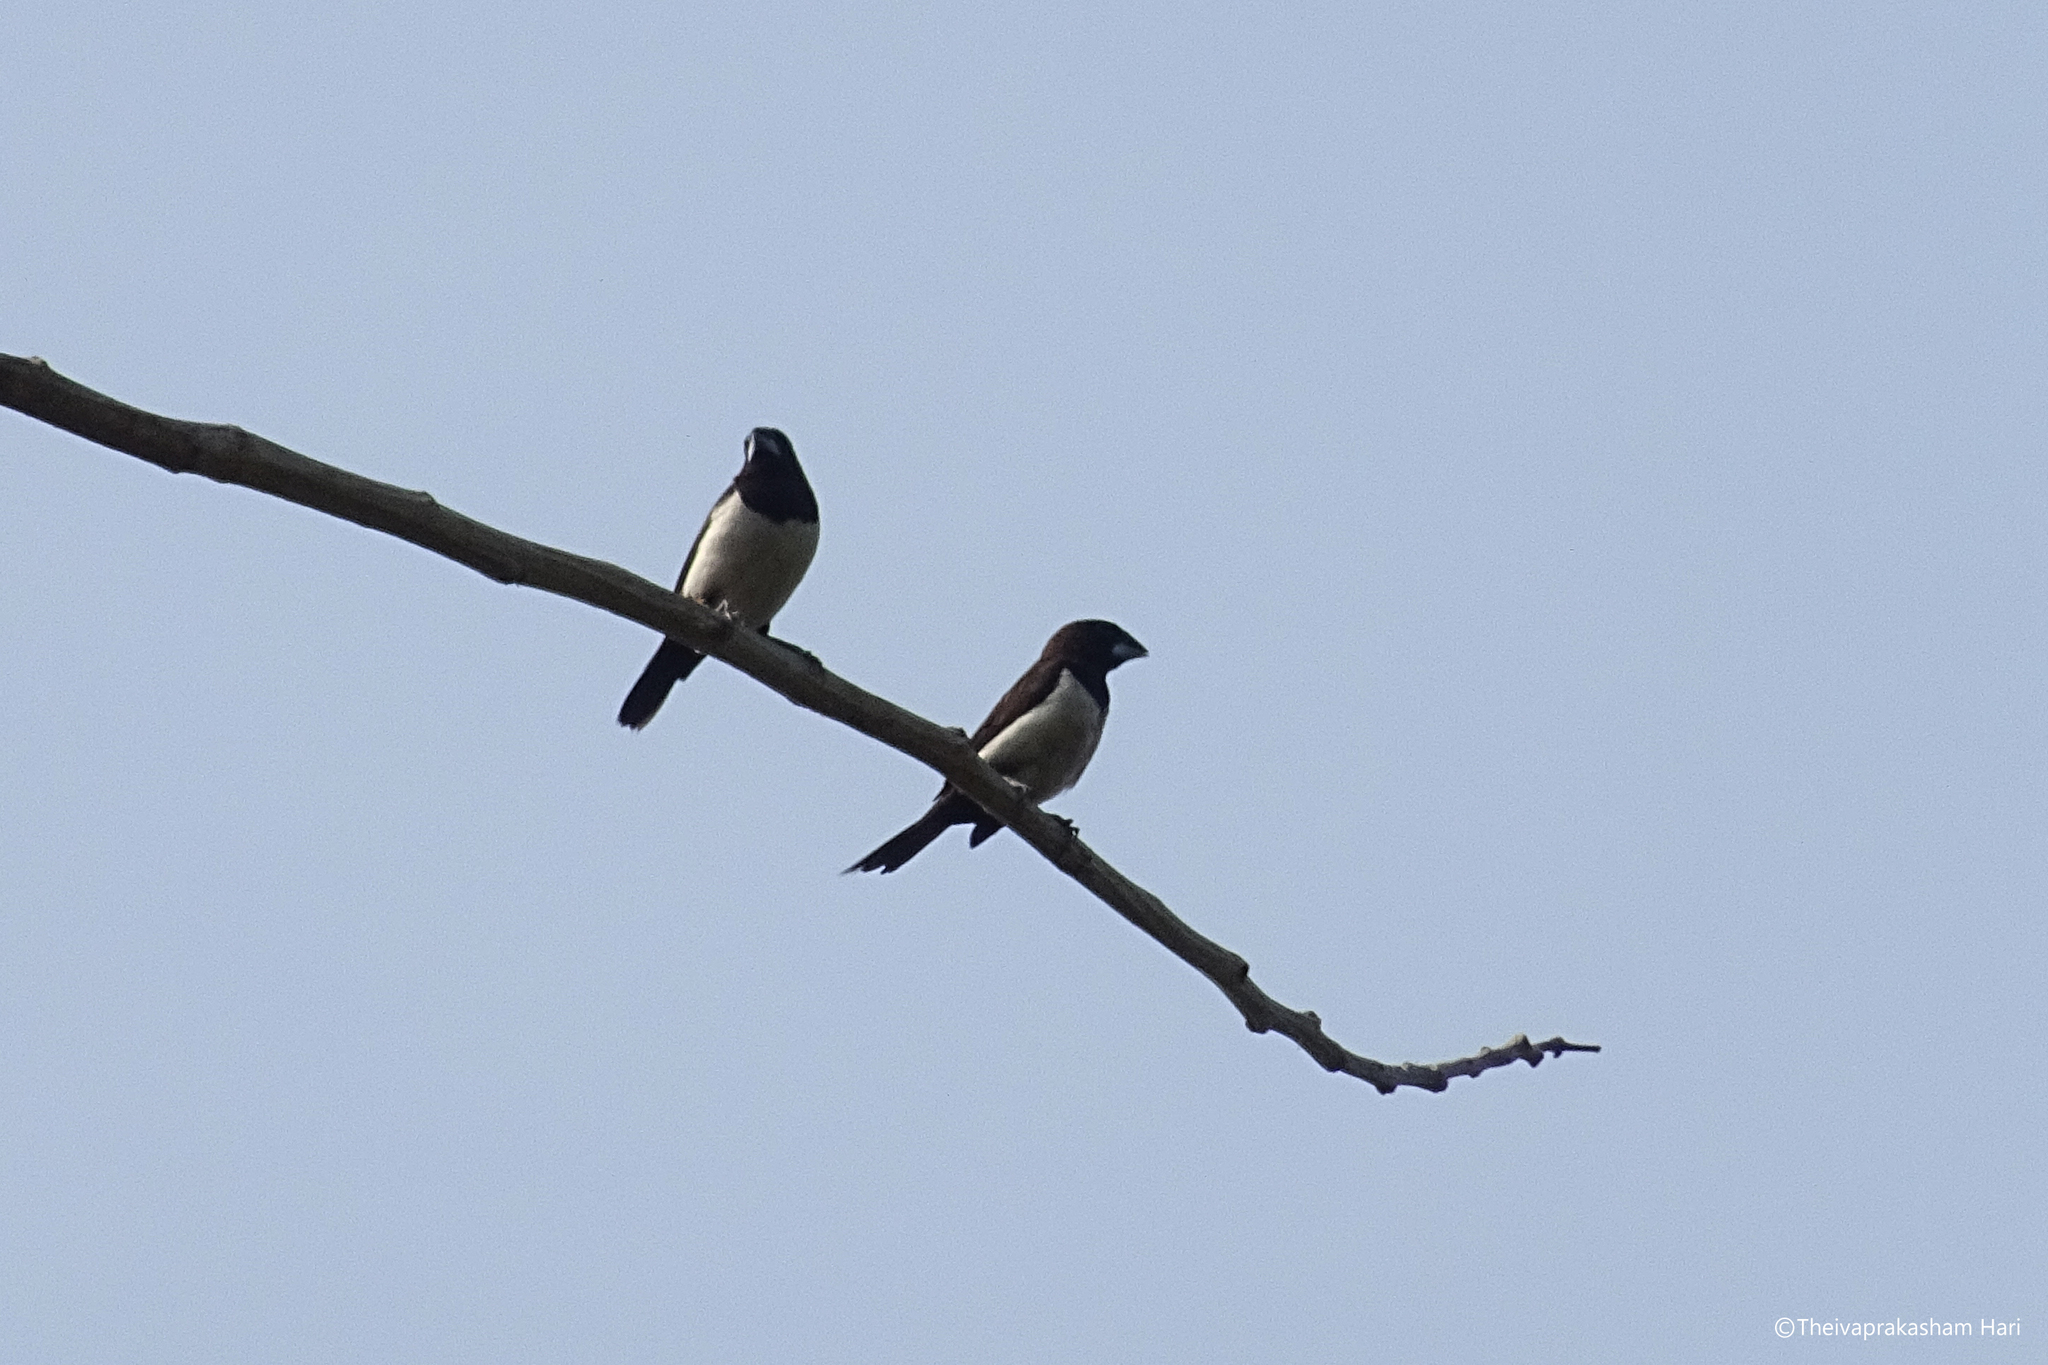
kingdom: Animalia
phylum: Chordata
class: Aves
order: Passeriformes
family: Estrildidae
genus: Lonchura
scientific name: Lonchura striata
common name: White-rumped munia
